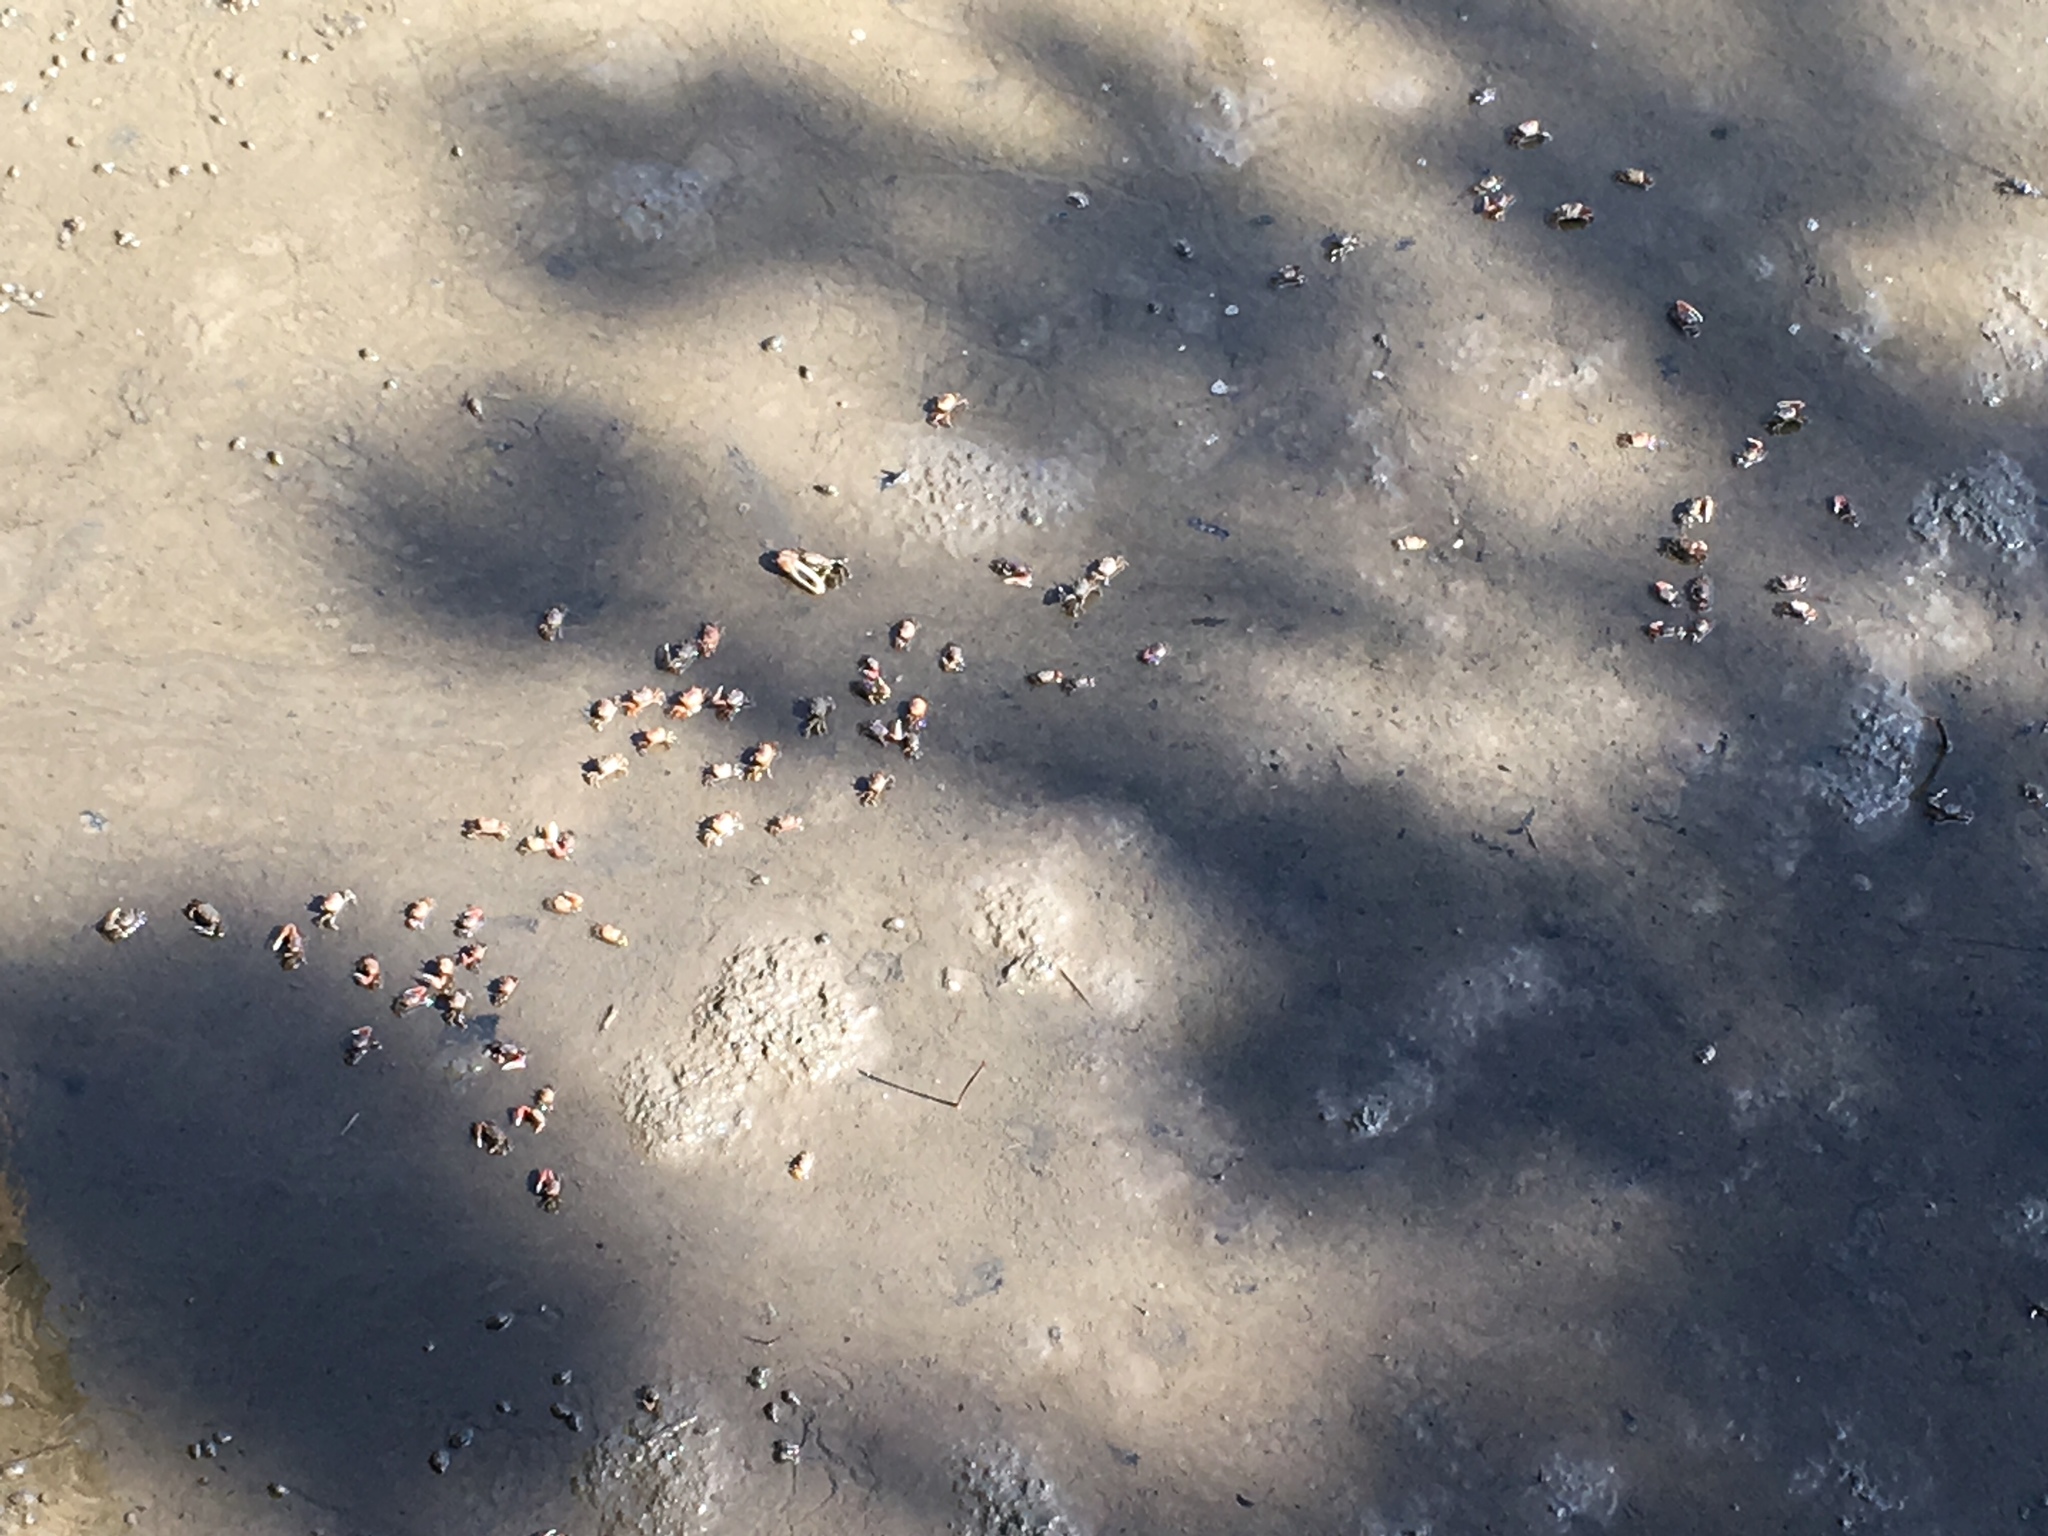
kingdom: Animalia
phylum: Arthropoda
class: Malacostraca
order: Decapoda
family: Ocypodidae
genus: Leptuca
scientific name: Leptuca pugilator
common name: Atlantic sand fiddler crab
